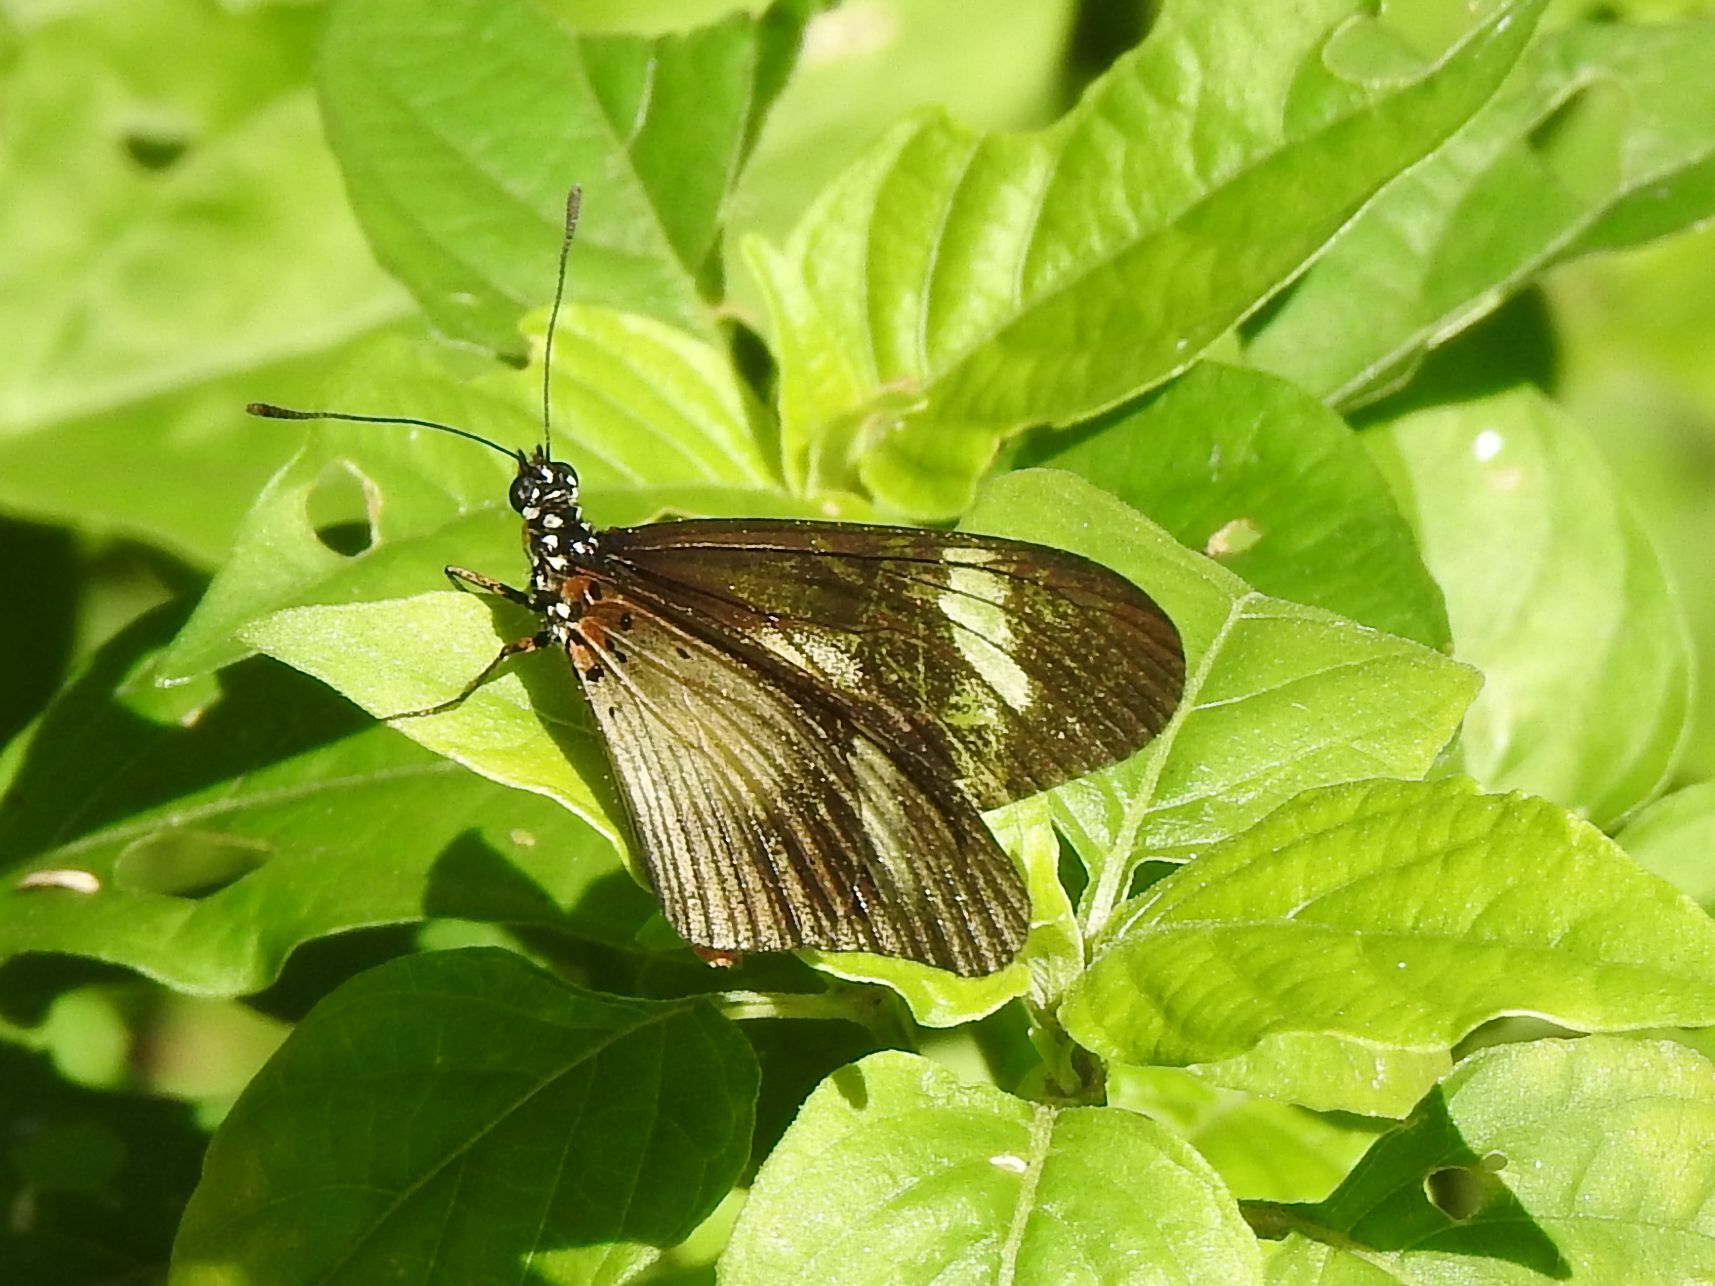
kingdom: Animalia
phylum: Arthropoda
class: Insecta
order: Lepidoptera
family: Nymphalidae
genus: Acraea
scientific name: Acraea esebria
